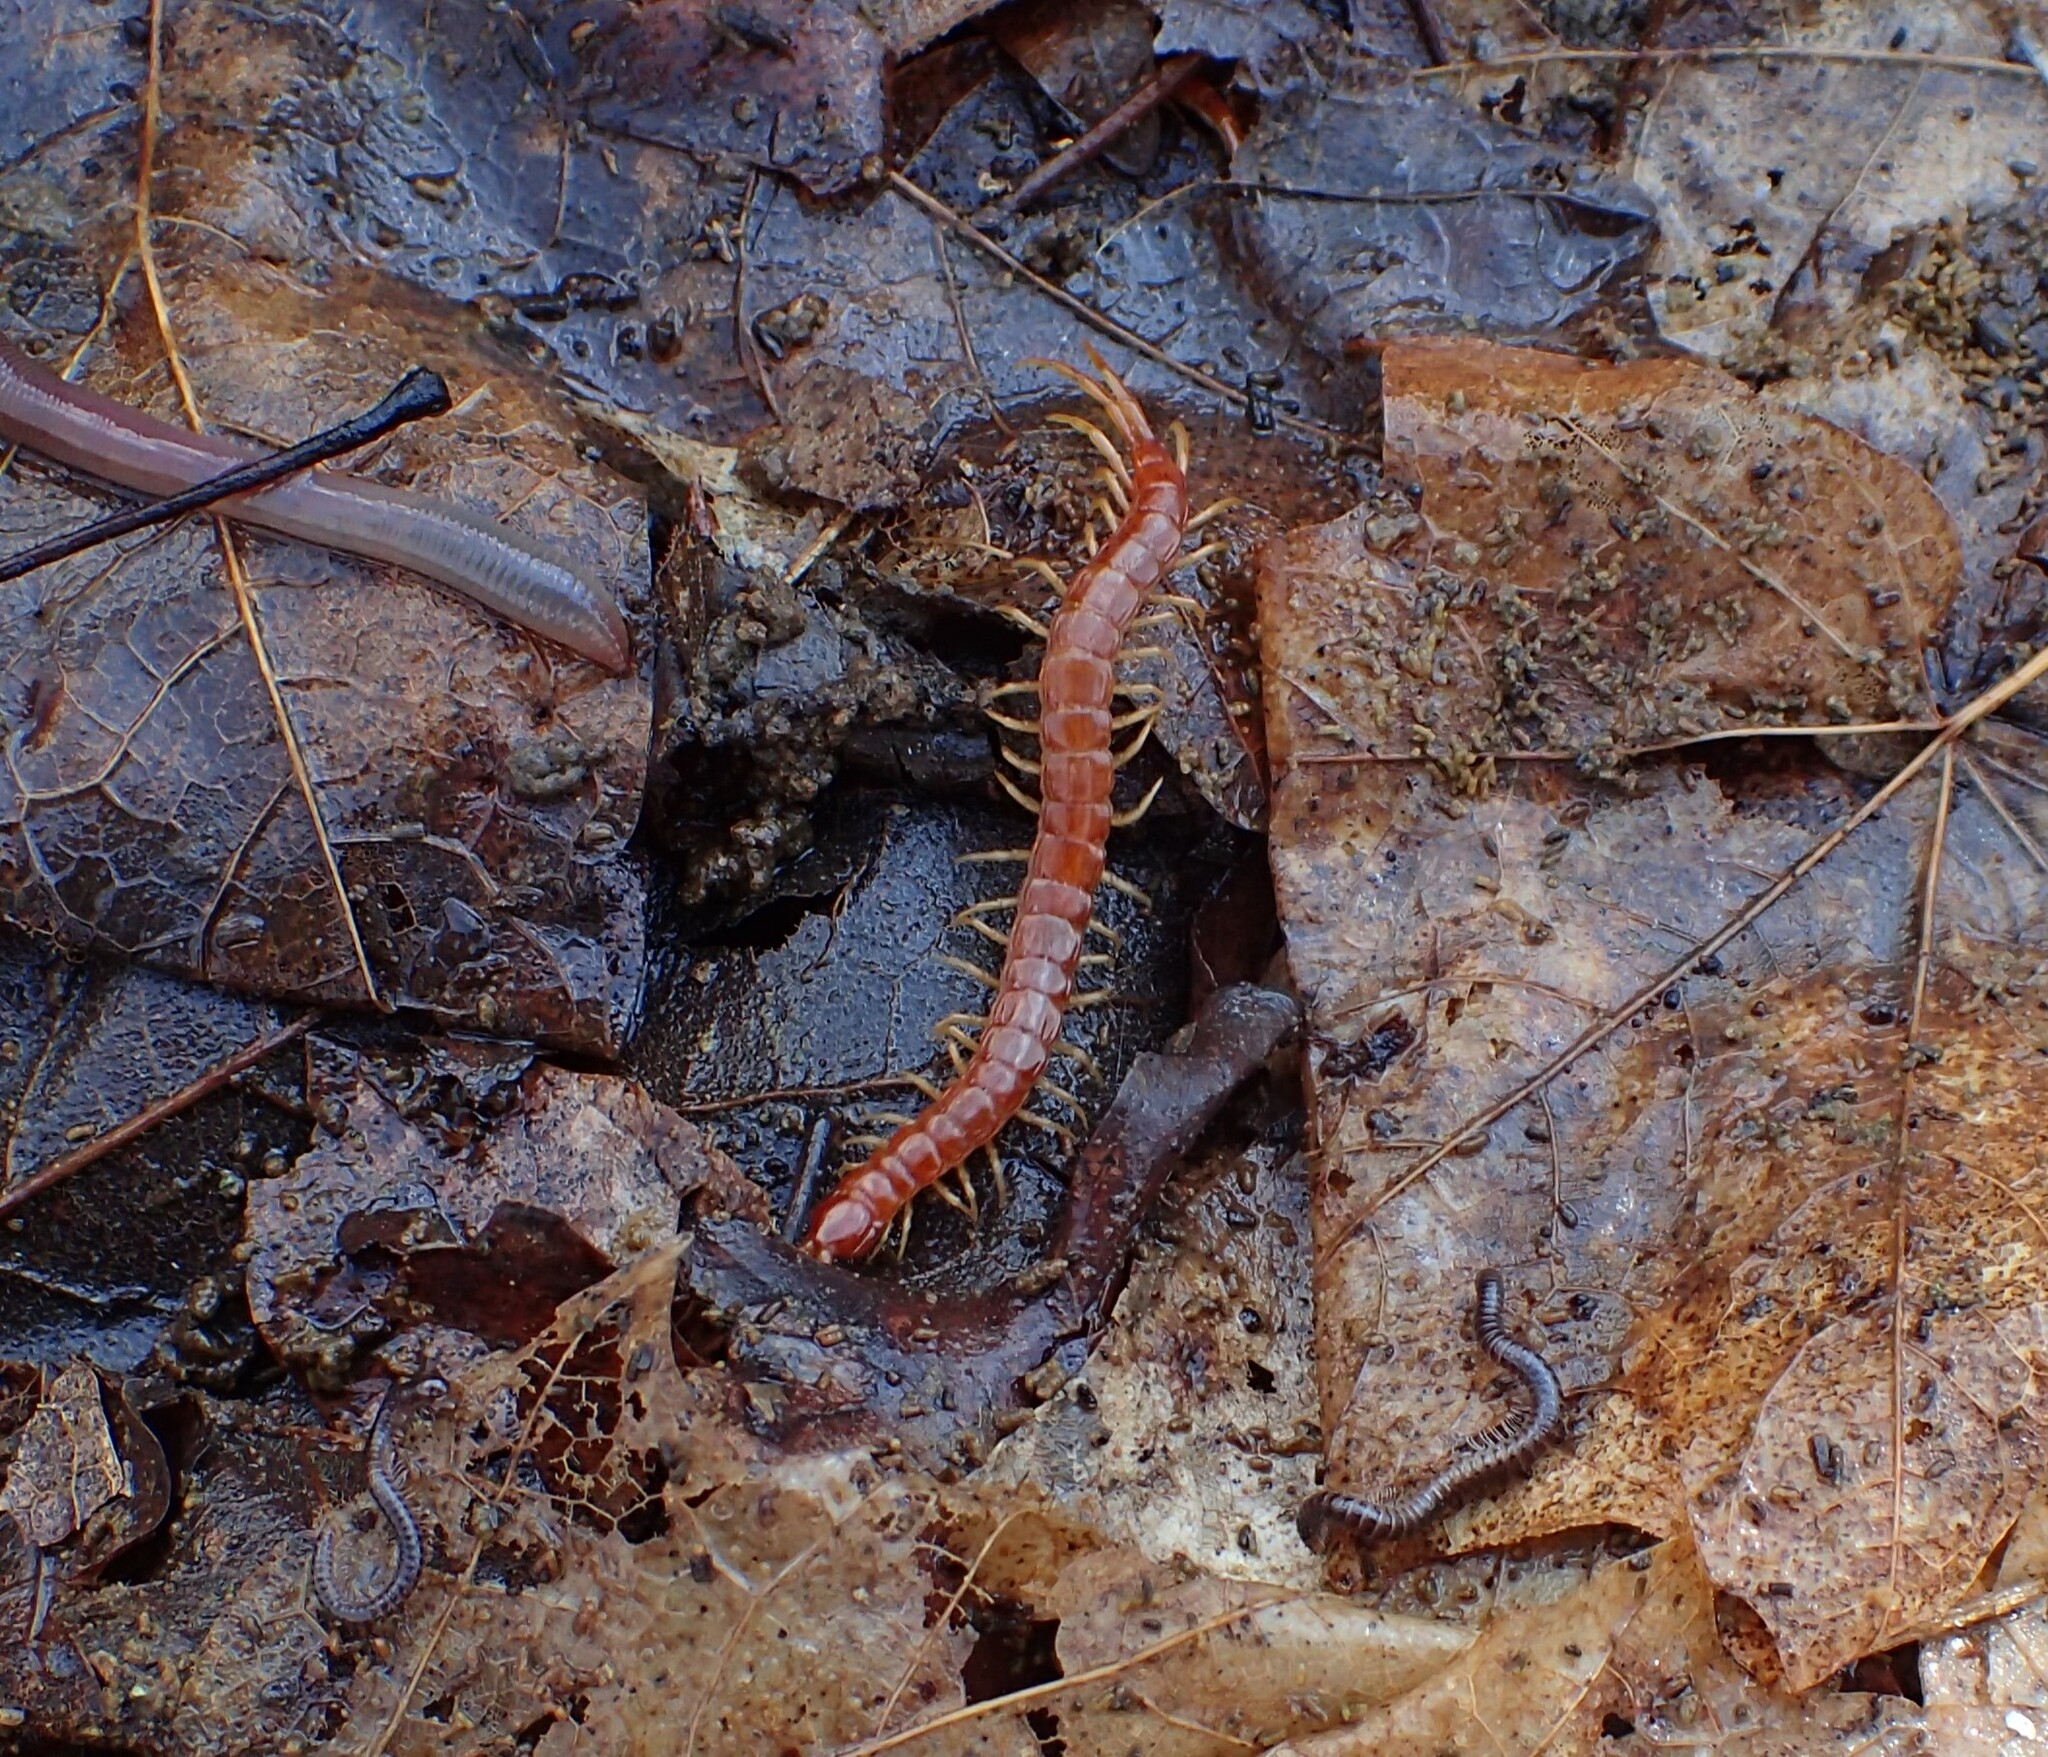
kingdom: Animalia
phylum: Arthropoda
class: Chilopoda
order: Scolopendromorpha
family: Scolopocryptopidae
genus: Scolopocryptops
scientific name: Scolopocryptops sexspinosus
